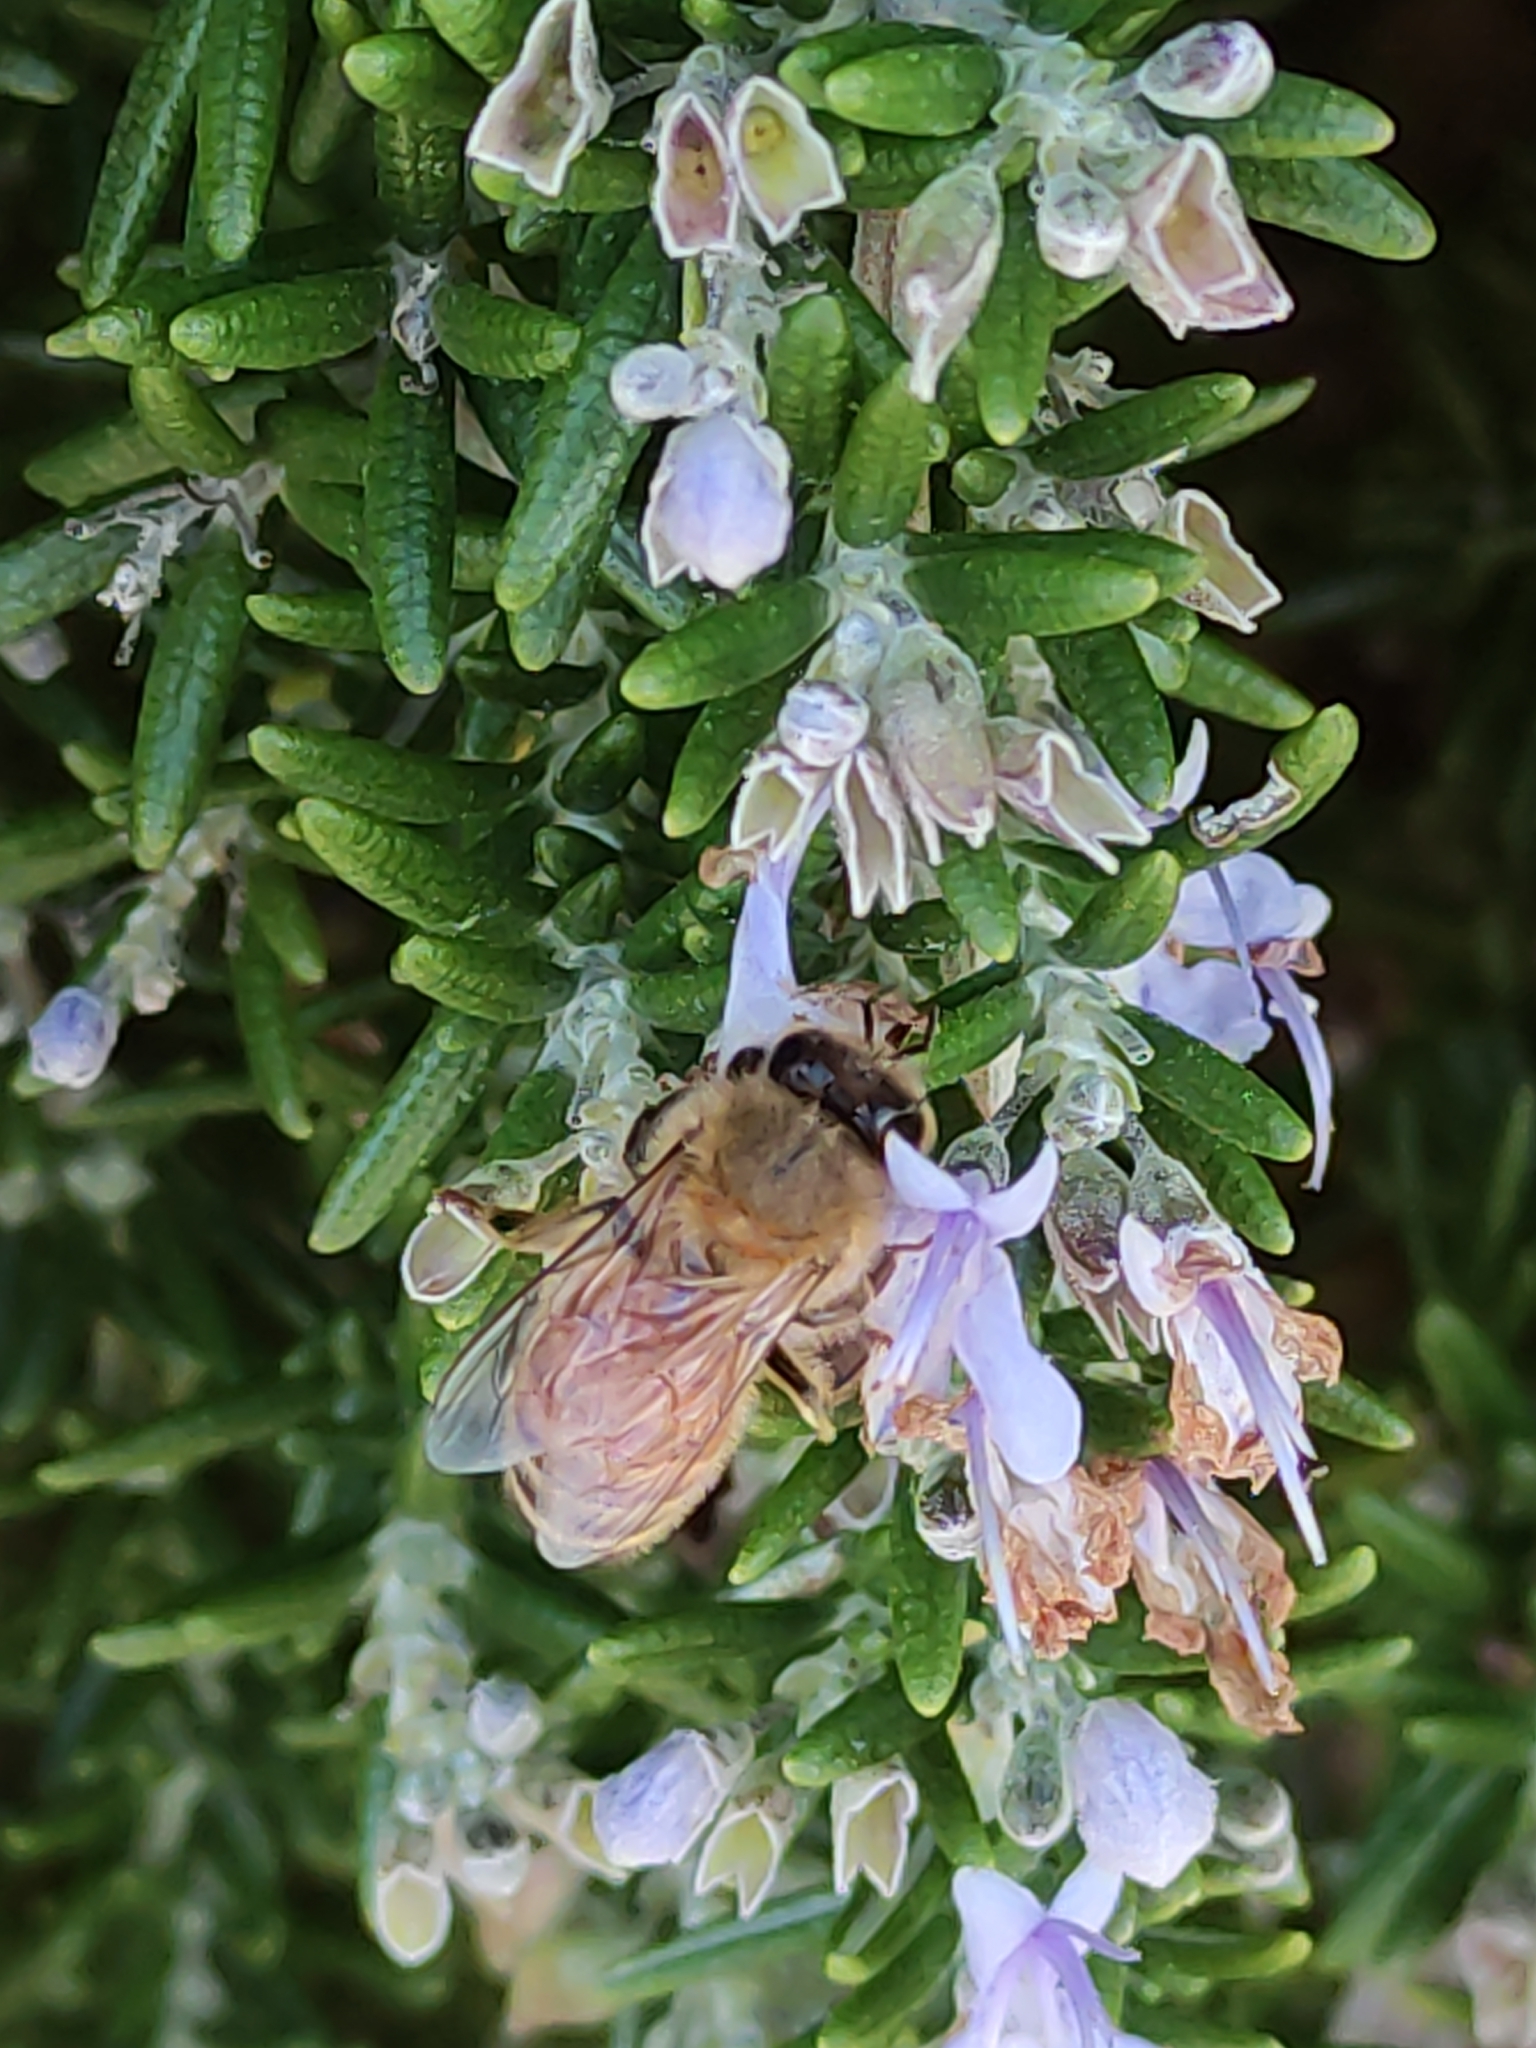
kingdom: Animalia
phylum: Arthropoda
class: Insecta
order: Hymenoptera
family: Apidae
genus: Apis
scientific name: Apis mellifera
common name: Honey bee
